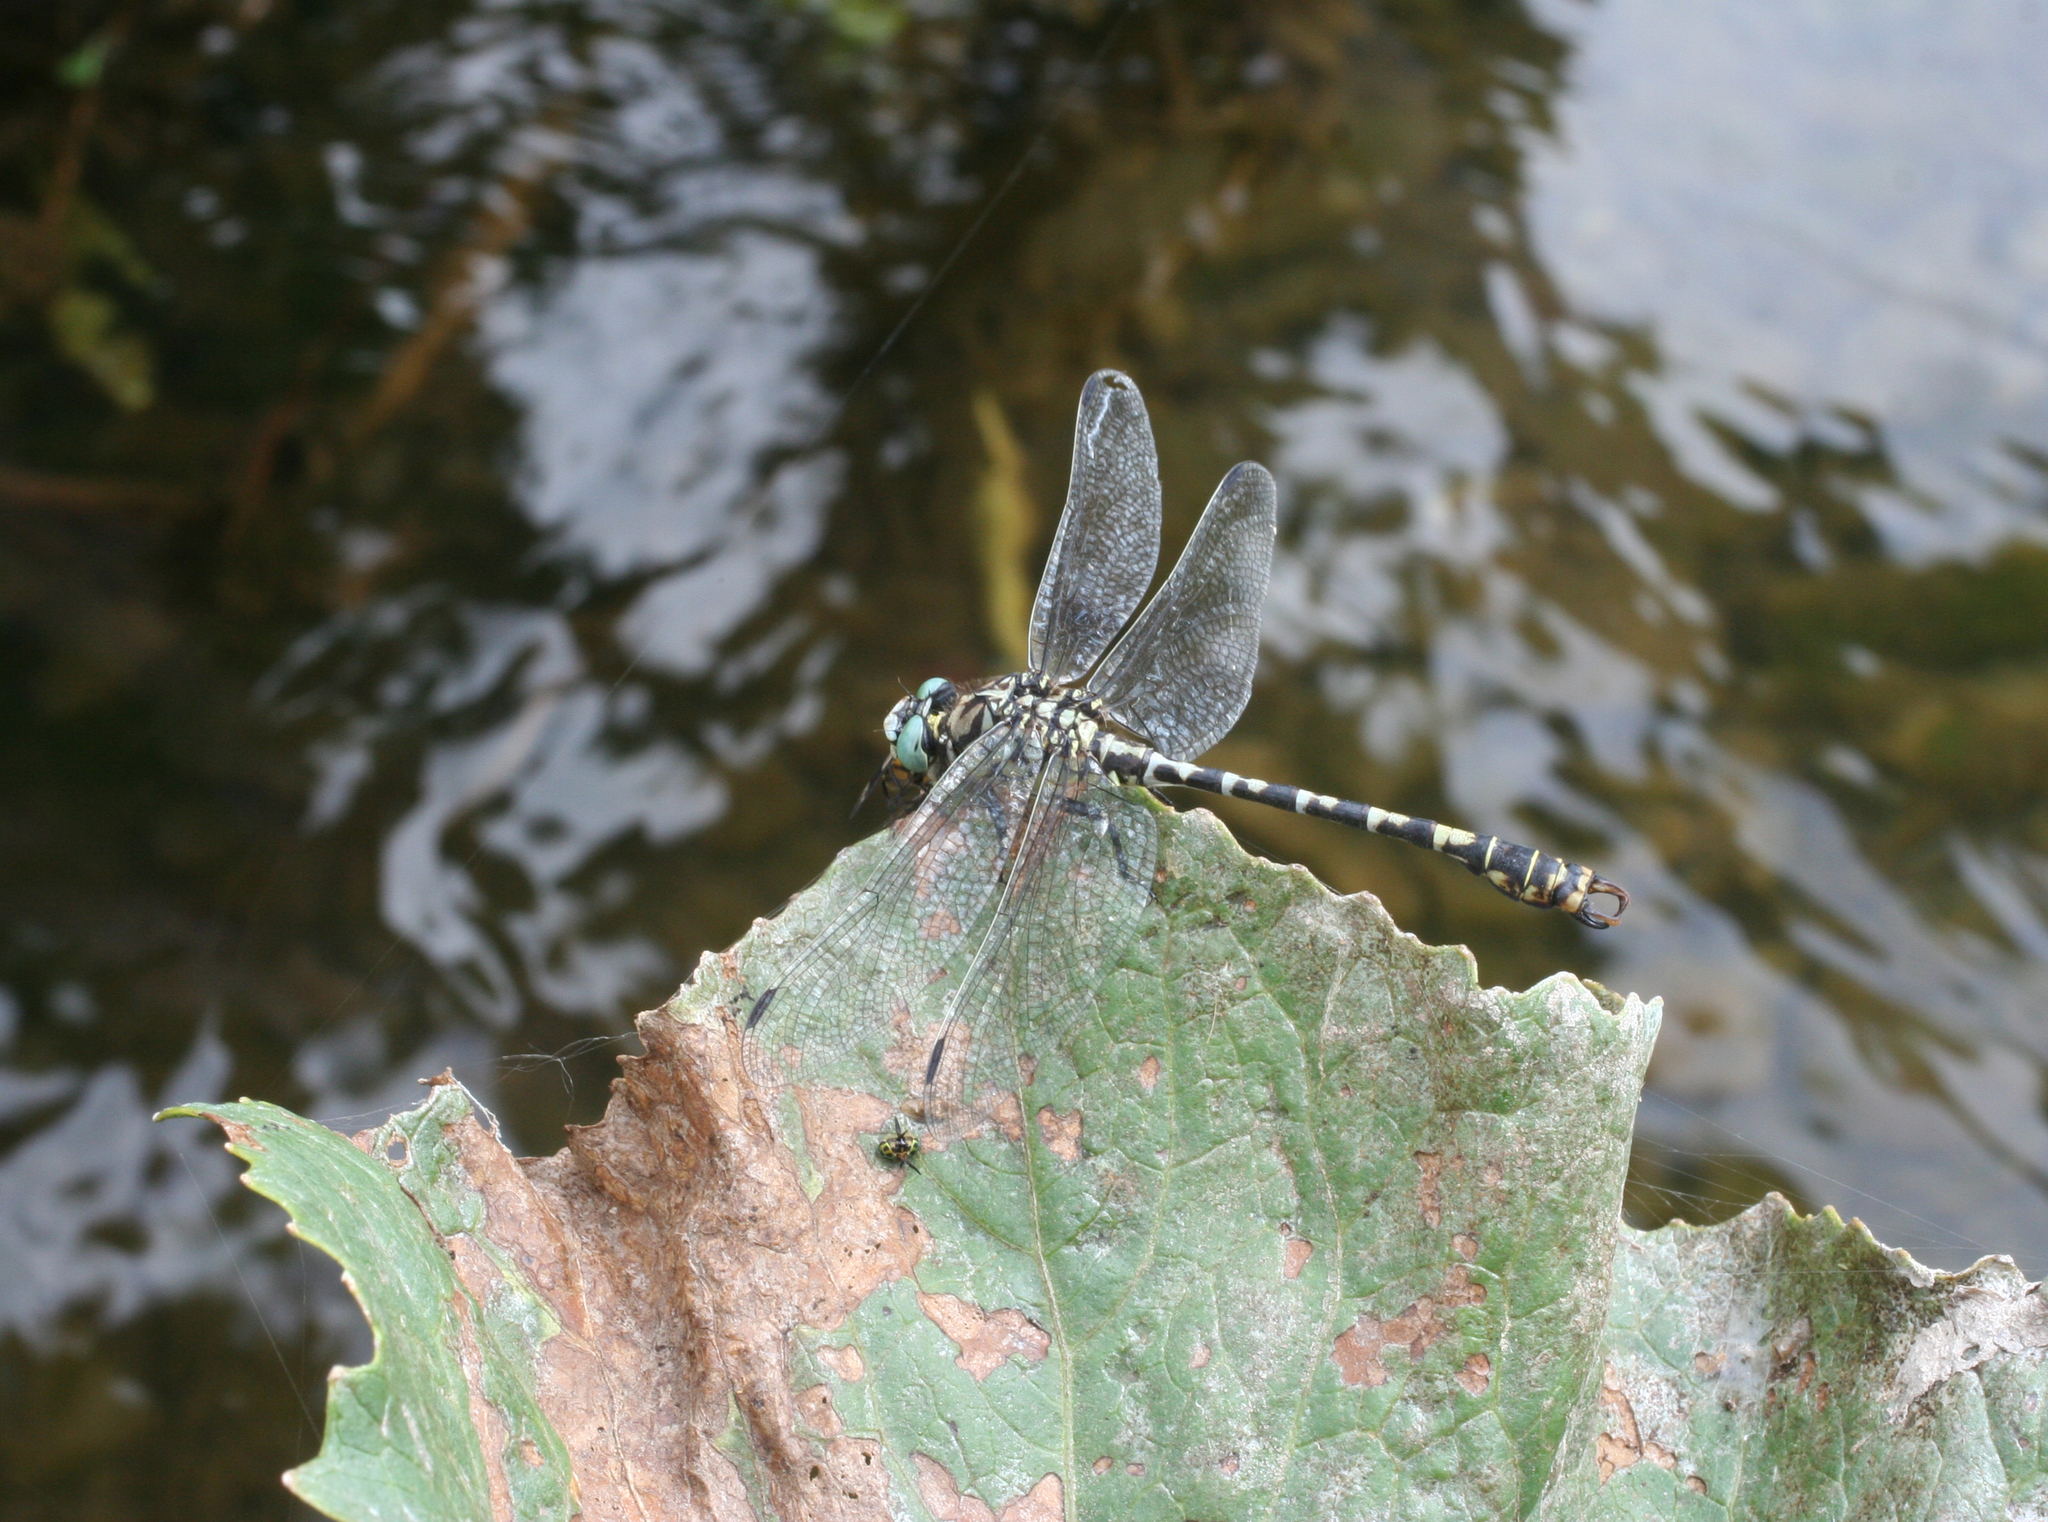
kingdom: Animalia
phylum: Arthropoda
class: Insecta
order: Odonata
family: Gomphidae
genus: Onychogomphus
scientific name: Onychogomphus forcipatus
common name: Small pincertail
